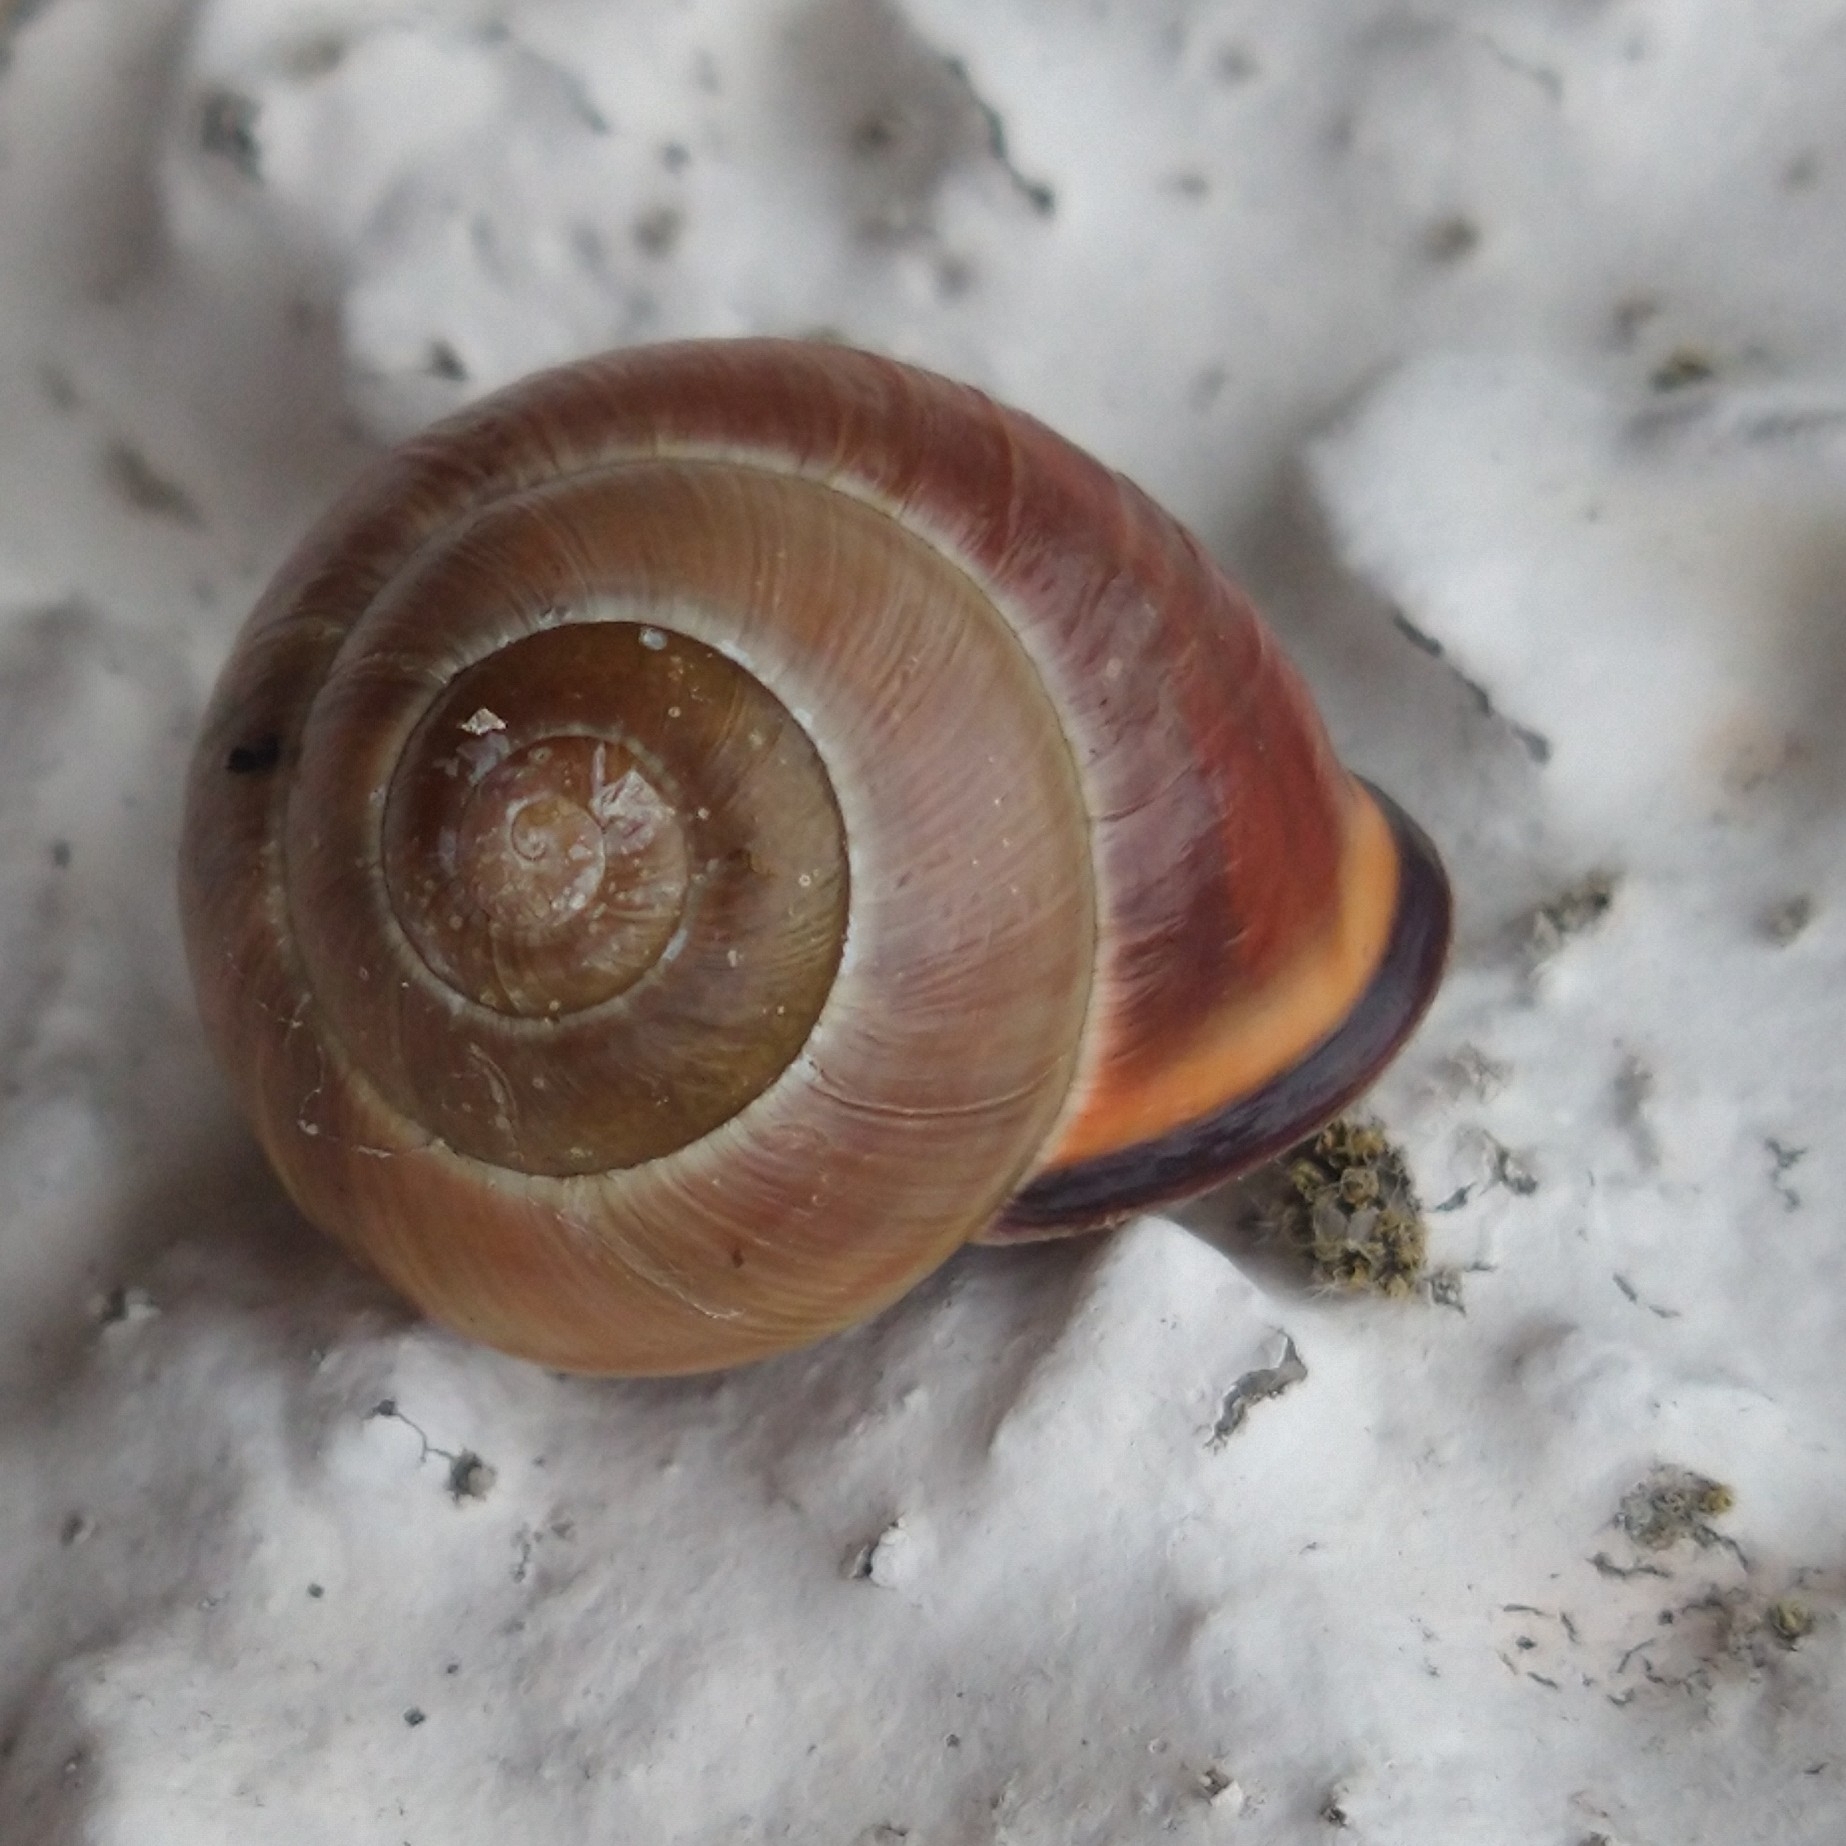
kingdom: Animalia
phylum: Mollusca
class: Gastropoda
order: Stylommatophora
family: Helicidae
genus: Cepaea
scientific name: Cepaea nemoralis
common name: Grovesnail
